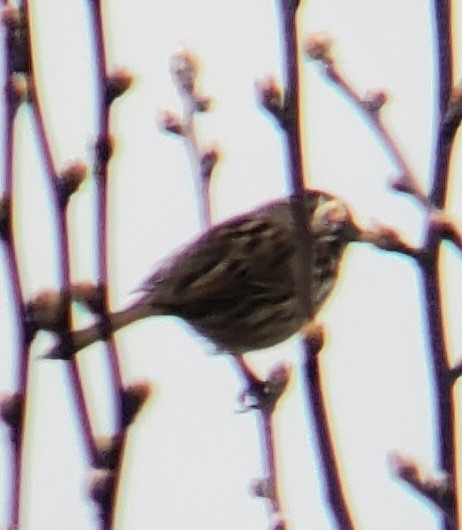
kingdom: Animalia
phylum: Chordata
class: Aves
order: Passeriformes
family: Passerellidae
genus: Melospiza
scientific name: Melospiza melodia
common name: Song sparrow
